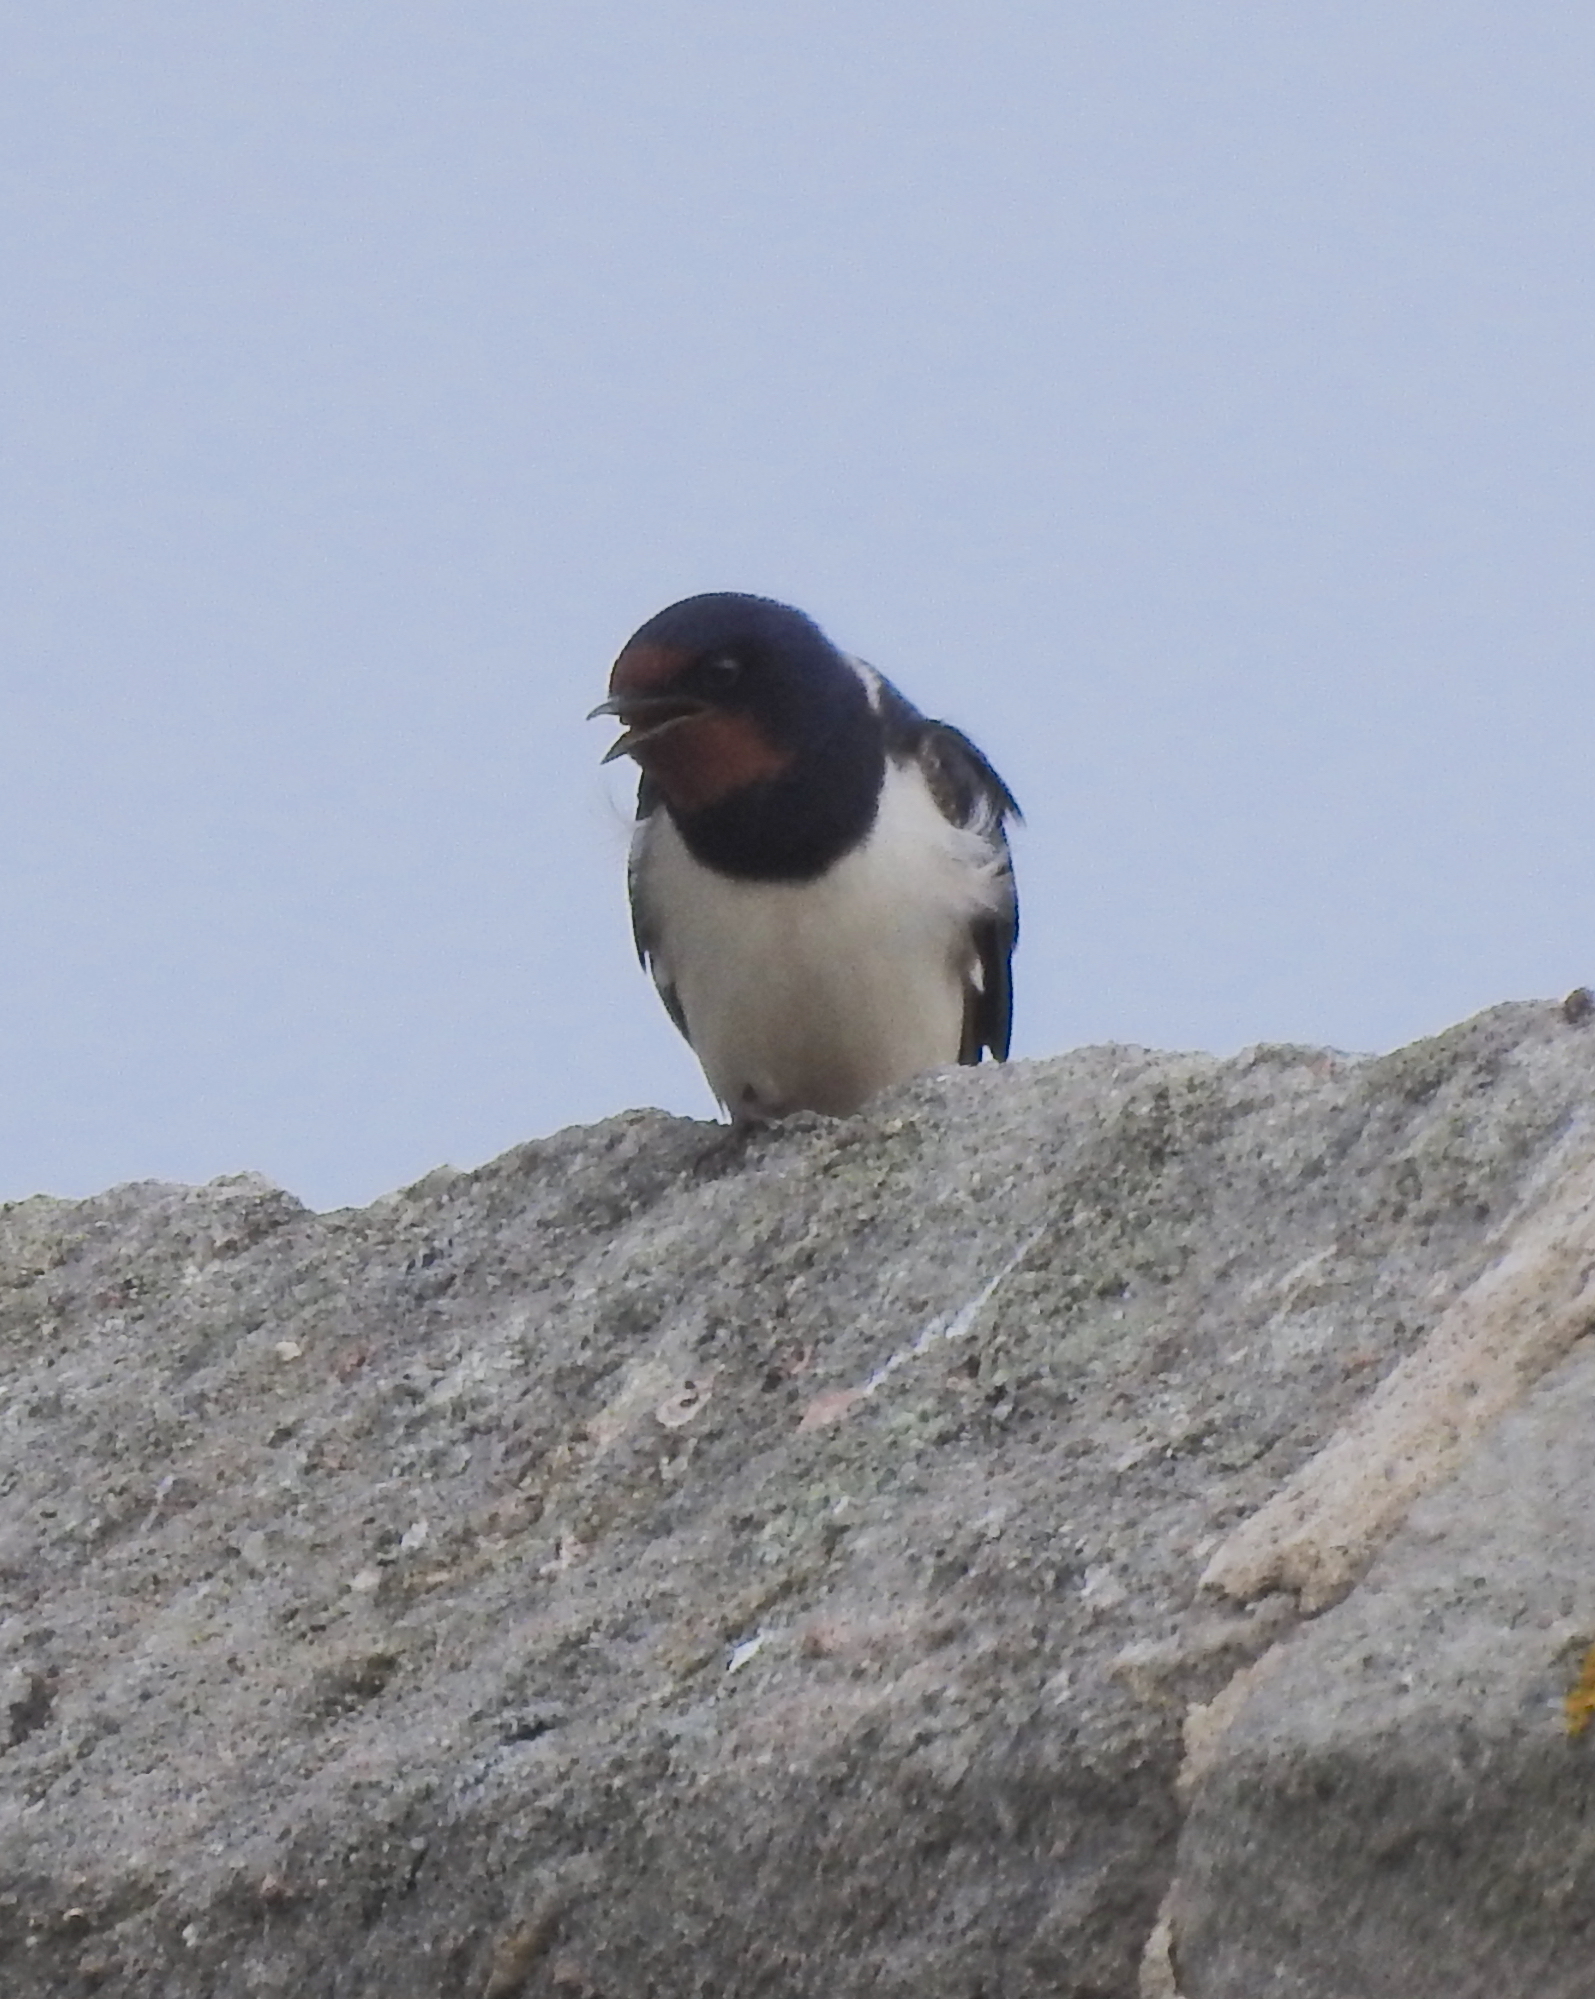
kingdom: Animalia
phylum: Chordata
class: Aves
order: Passeriformes
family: Hirundinidae
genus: Hirundo
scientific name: Hirundo rustica
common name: Barn swallow
